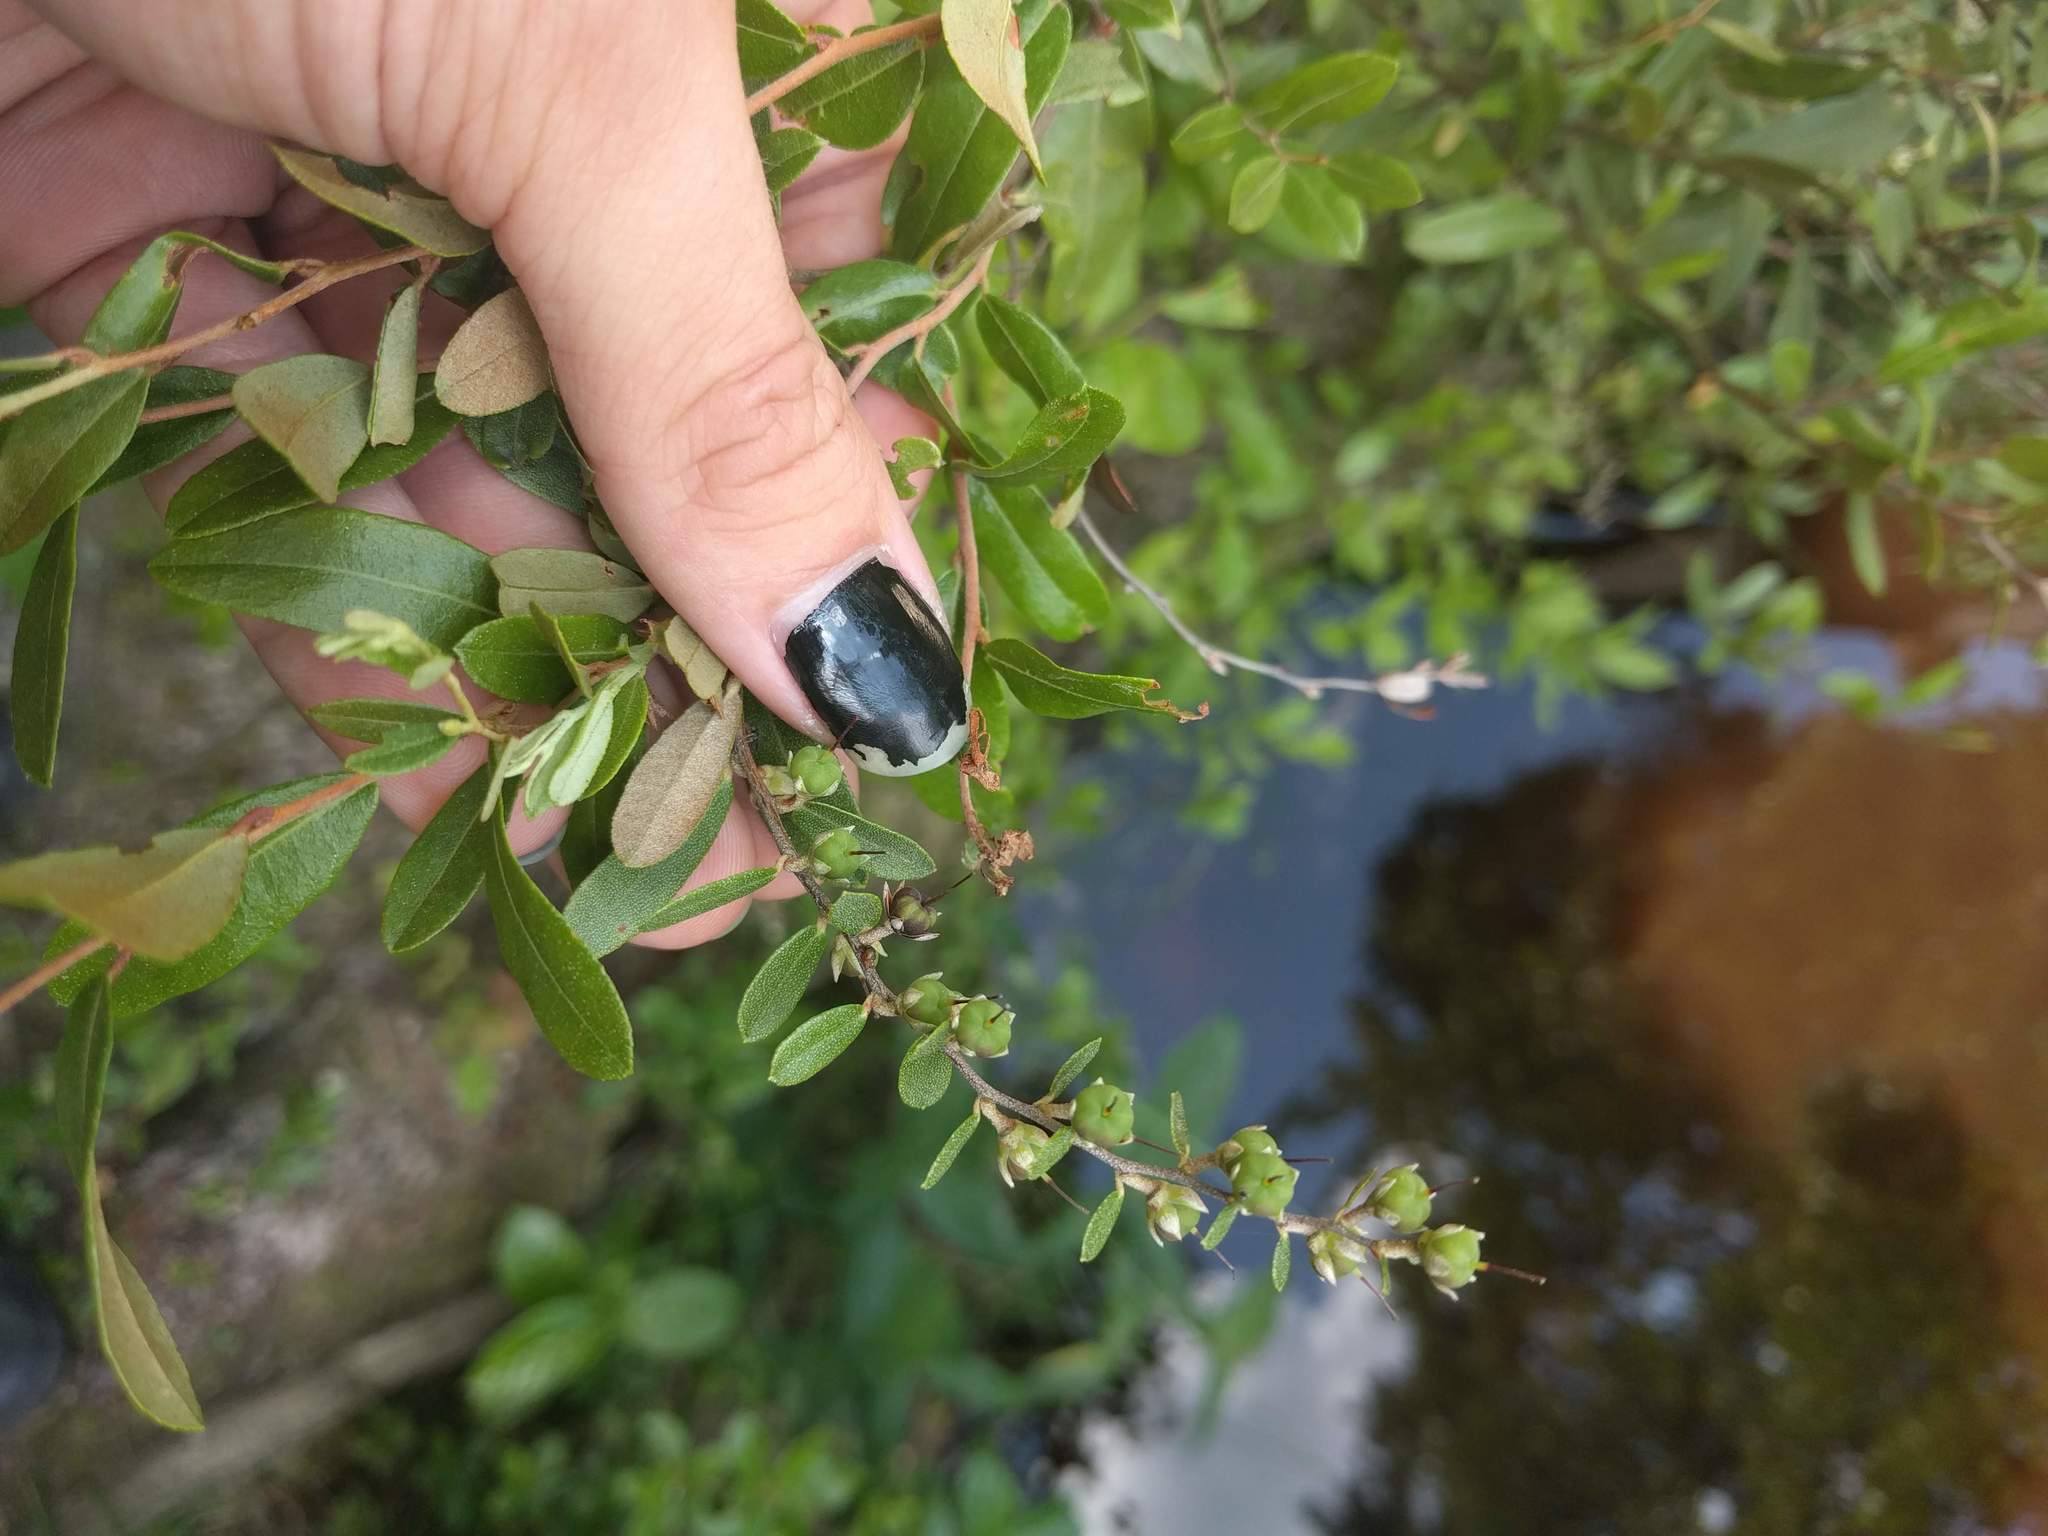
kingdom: Plantae
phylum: Tracheophyta
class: Magnoliopsida
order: Ericales
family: Ericaceae
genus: Chamaedaphne
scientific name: Chamaedaphne calyculata
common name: Leatherleaf
